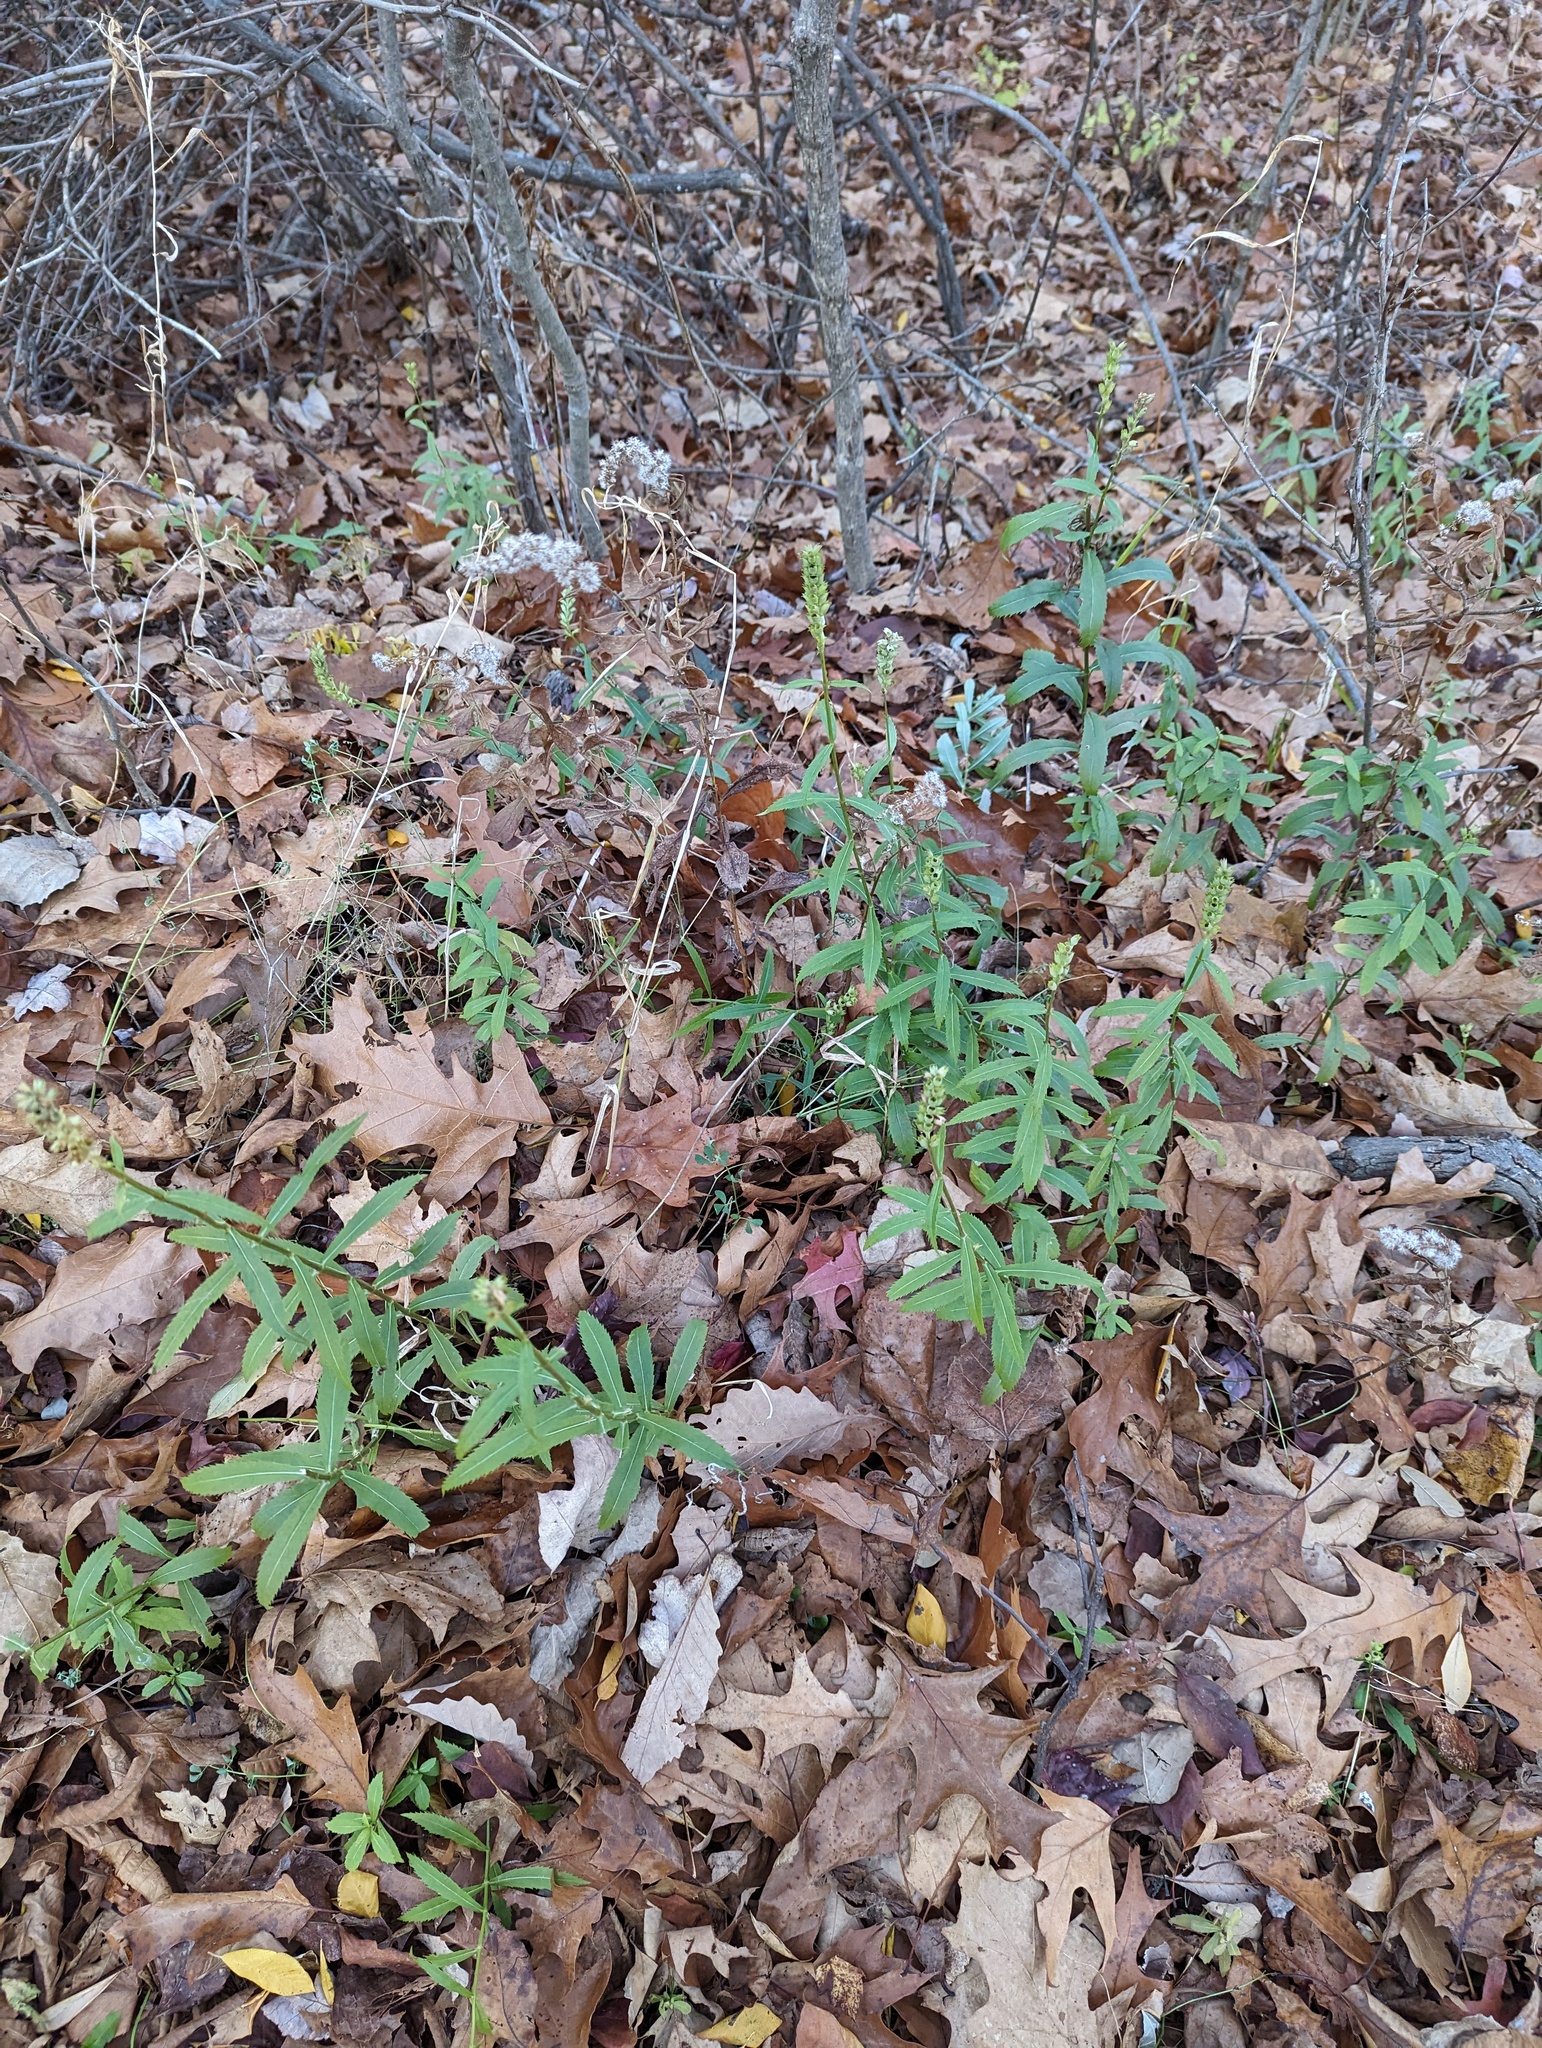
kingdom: Plantae
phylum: Tracheophyta
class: Magnoliopsida
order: Lamiales
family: Lamiaceae
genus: Physostegia
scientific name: Physostegia virginiana
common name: Obedient-plant
